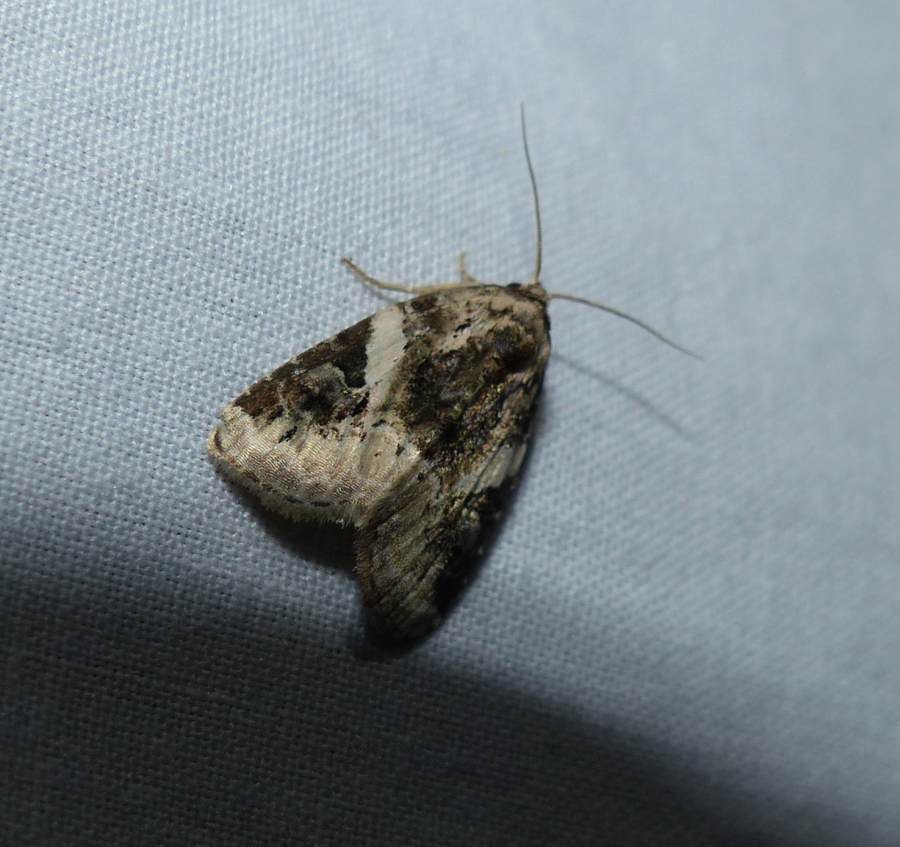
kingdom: Animalia
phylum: Arthropoda
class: Insecta
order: Lepidoptera
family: Noctuidae
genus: Pseudeustrotia
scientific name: Pseudeustrotia carneola
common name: Pink-barred lithacodia moth
